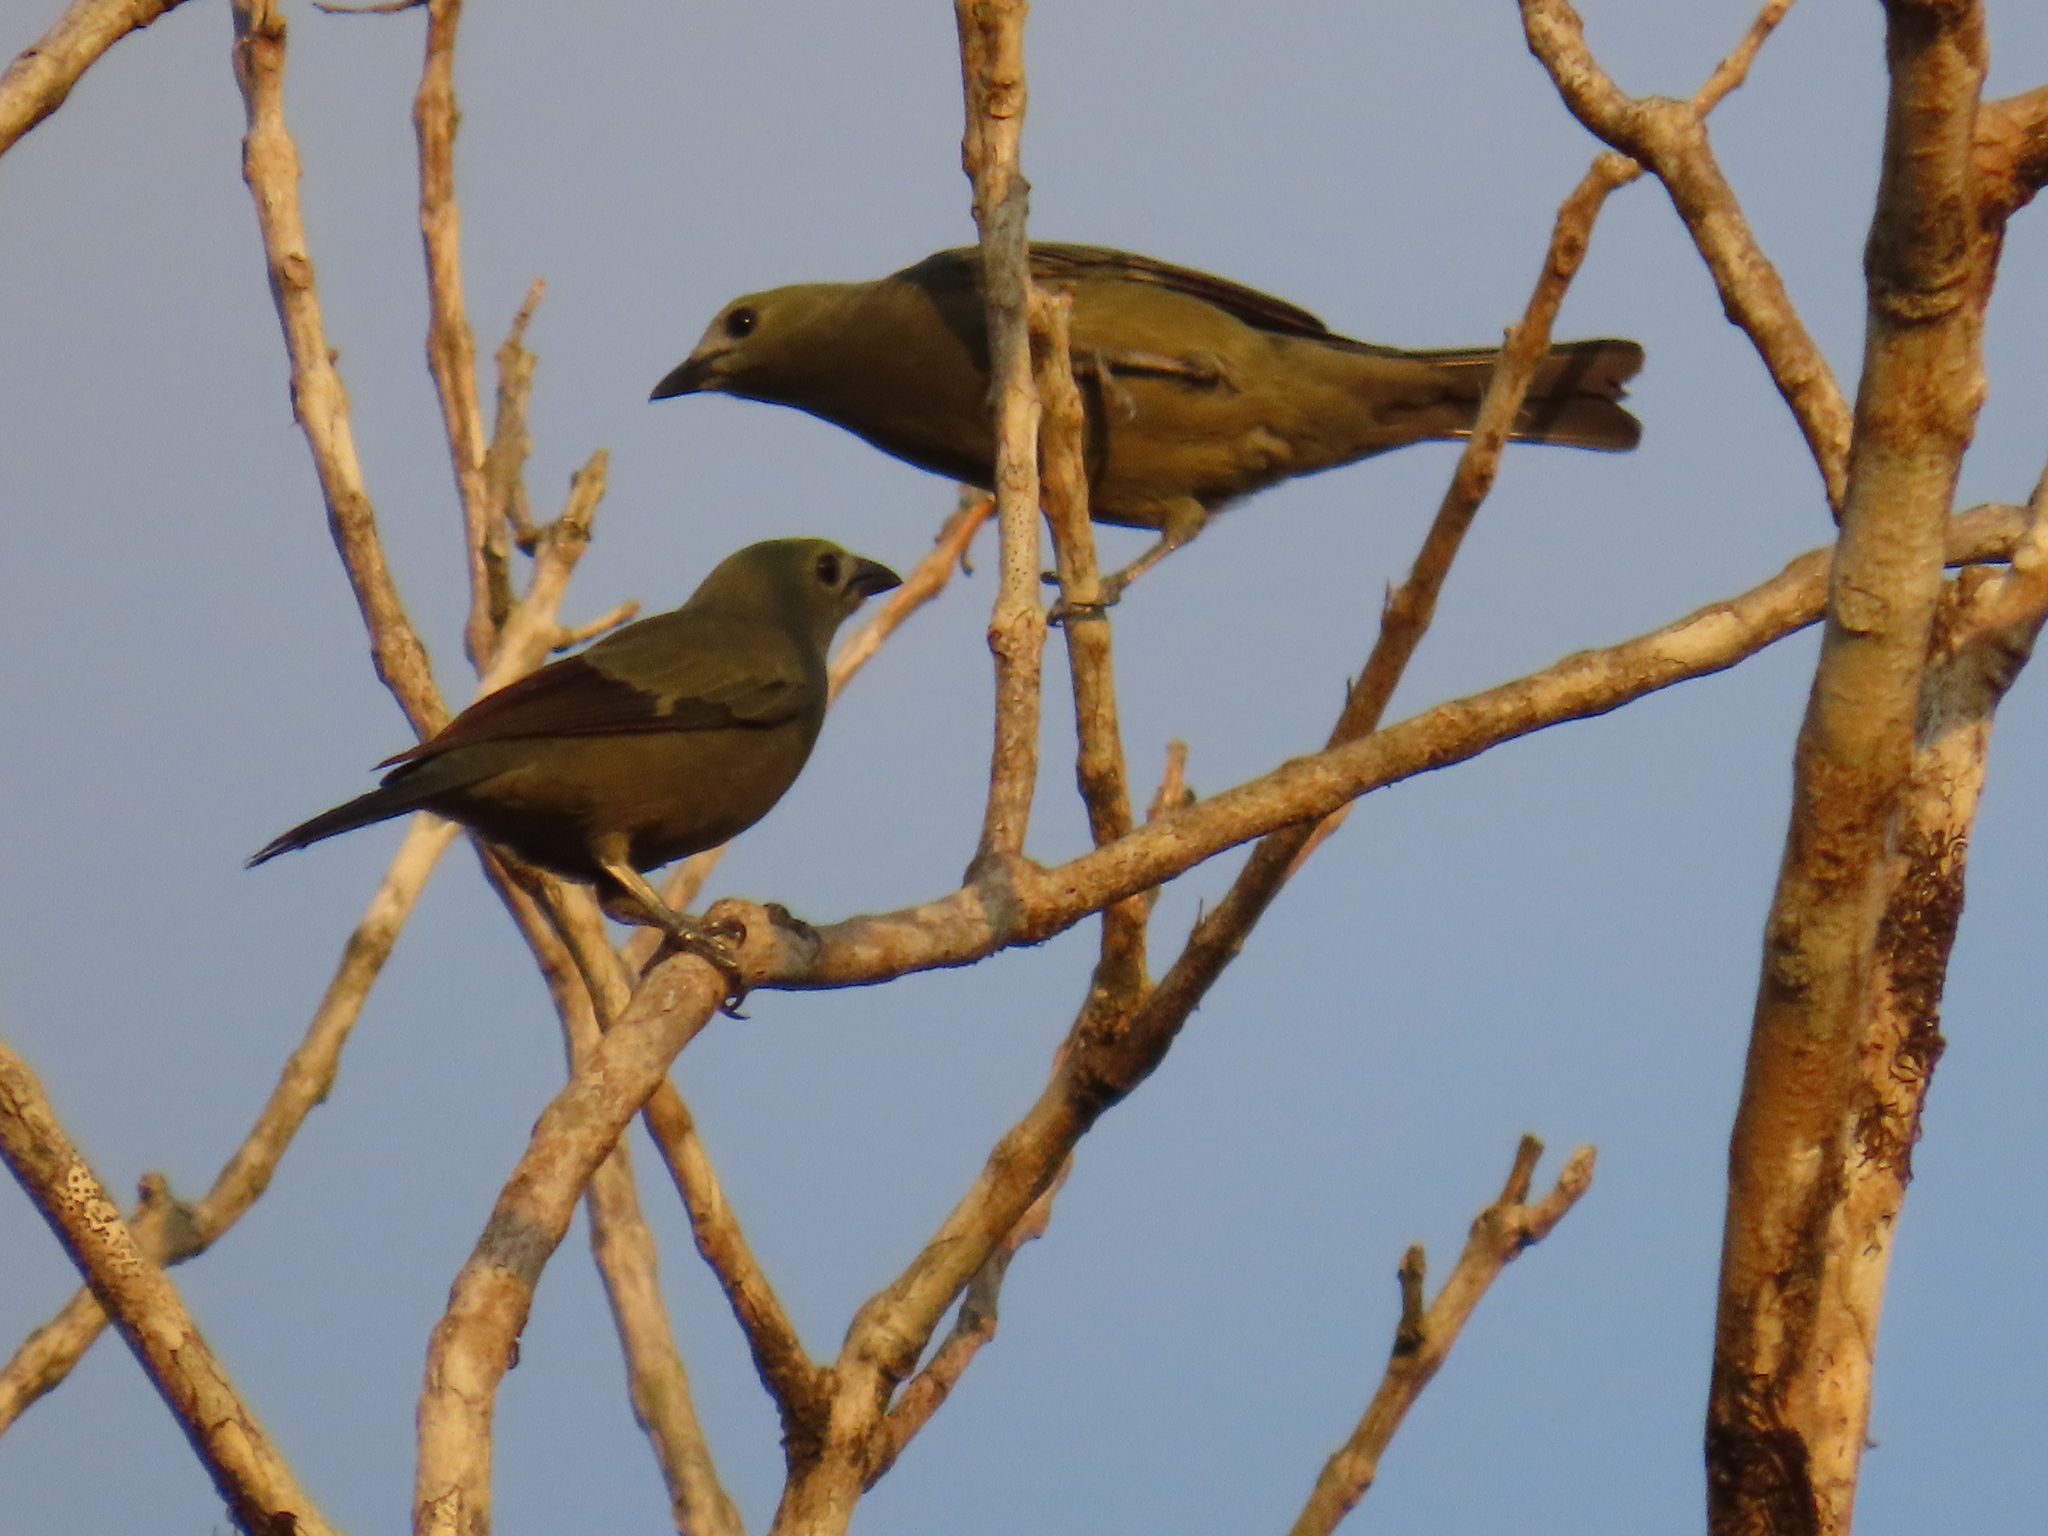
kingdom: Animalia
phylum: Chordata
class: Aves
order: Passeriformes
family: Thraupidae
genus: Thraupis
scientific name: Thraupis palmarum
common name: Palm tanager
